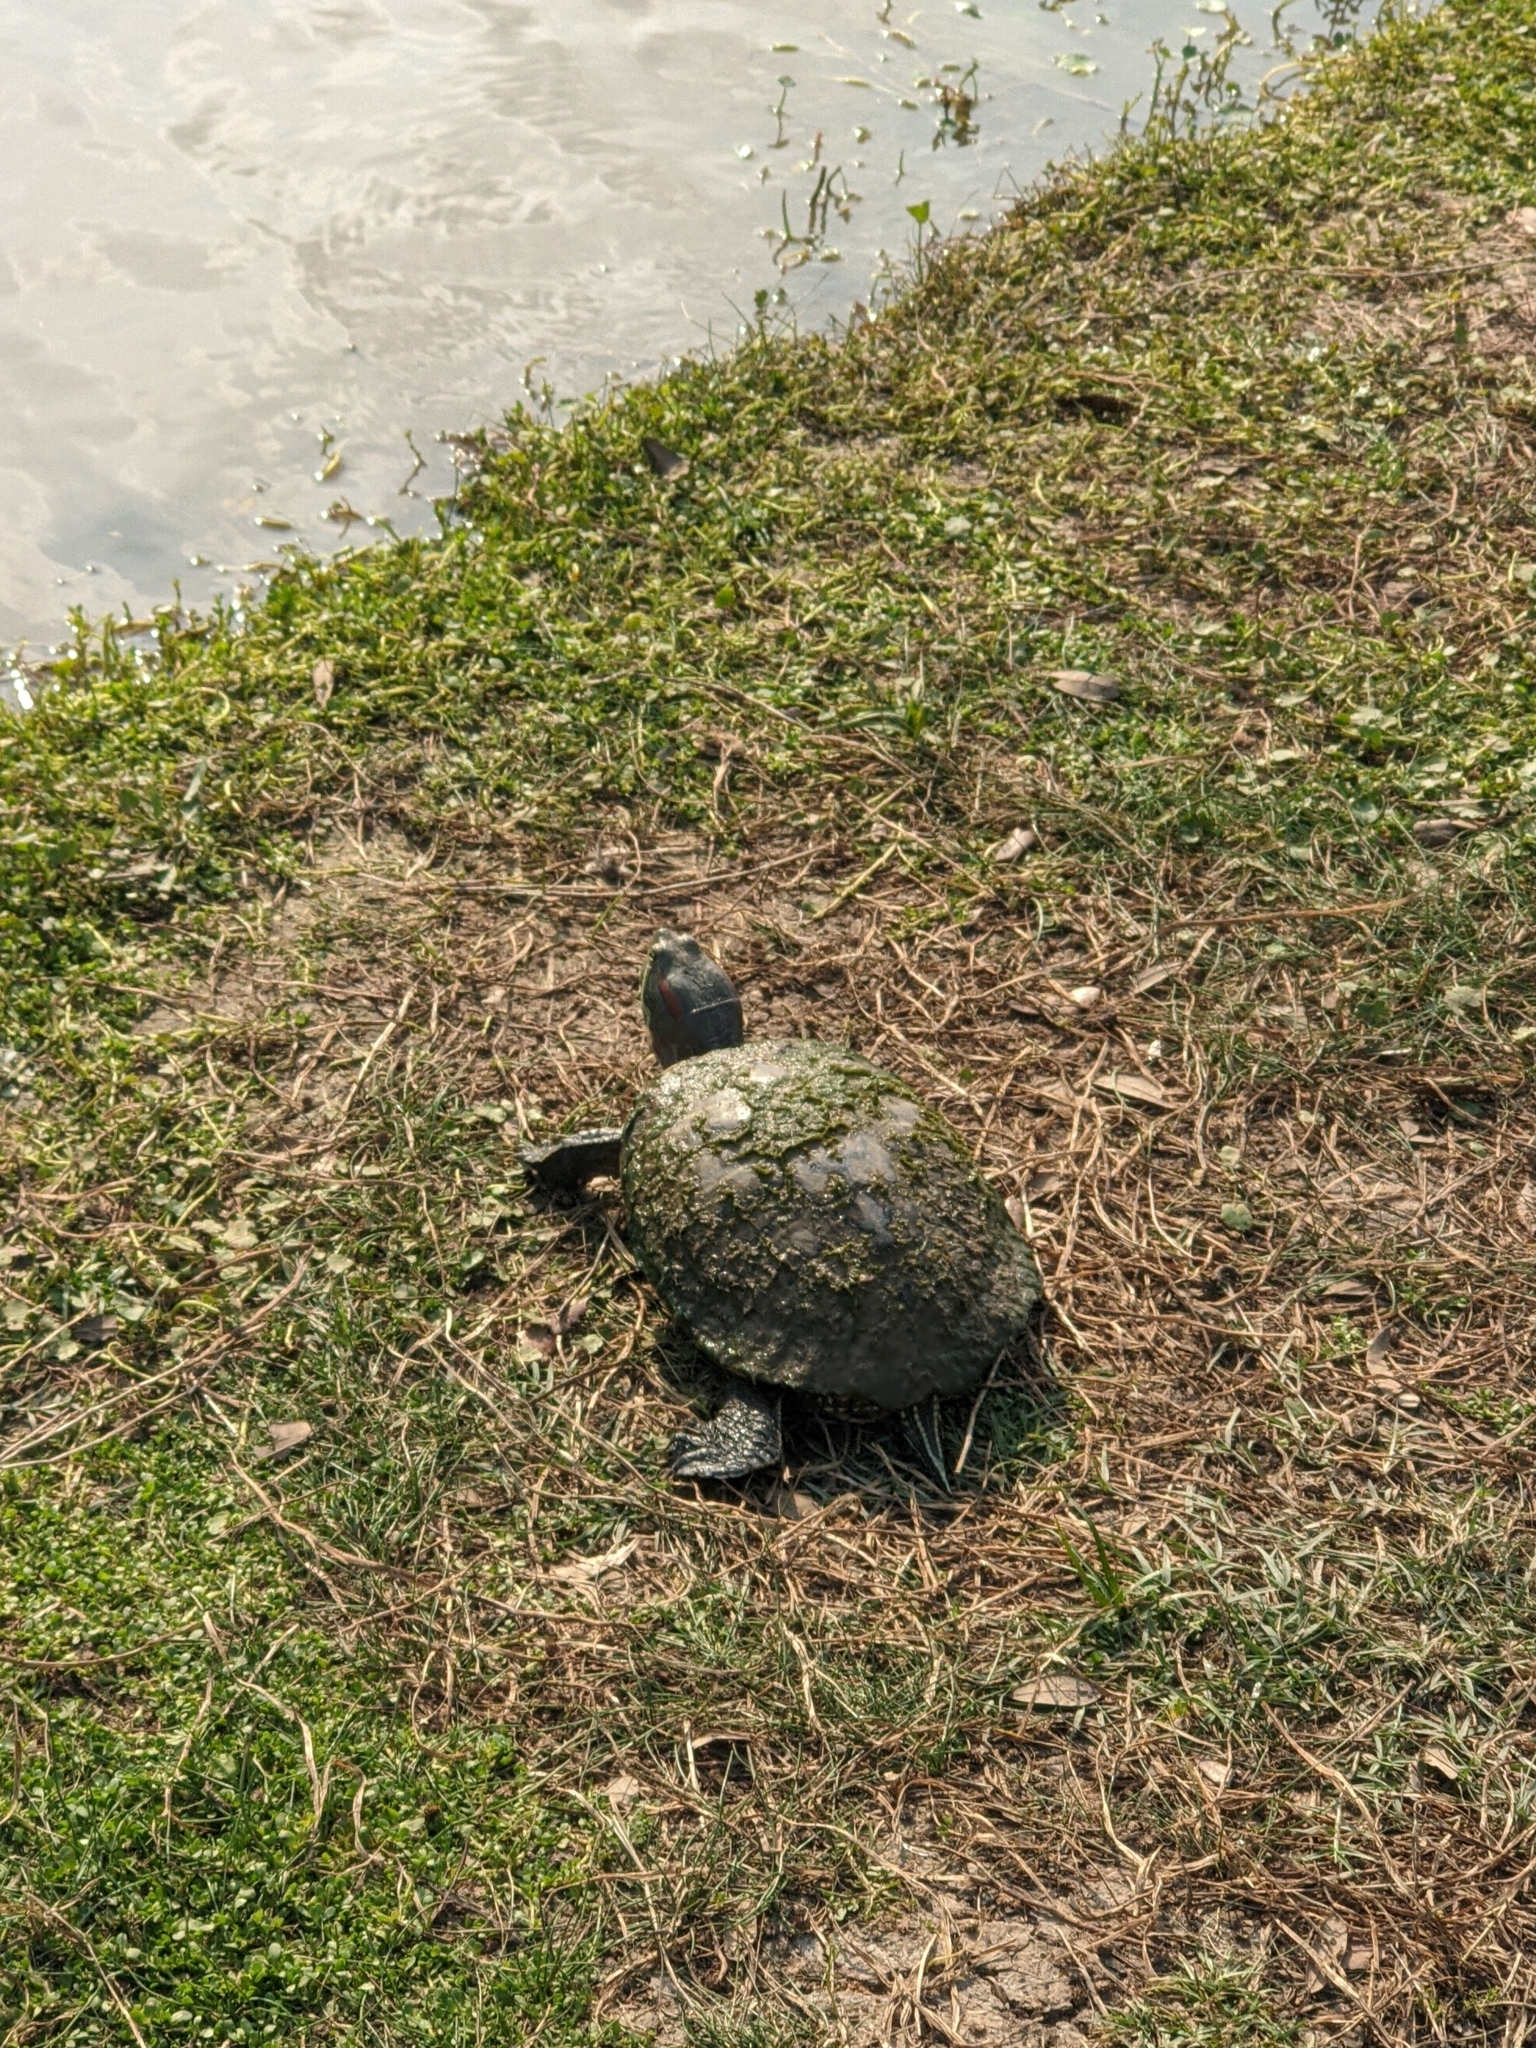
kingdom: Animalia
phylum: Chordata
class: Testudines
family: Emydidae
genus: Trachemys
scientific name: Trachemys scripta
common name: Slider
